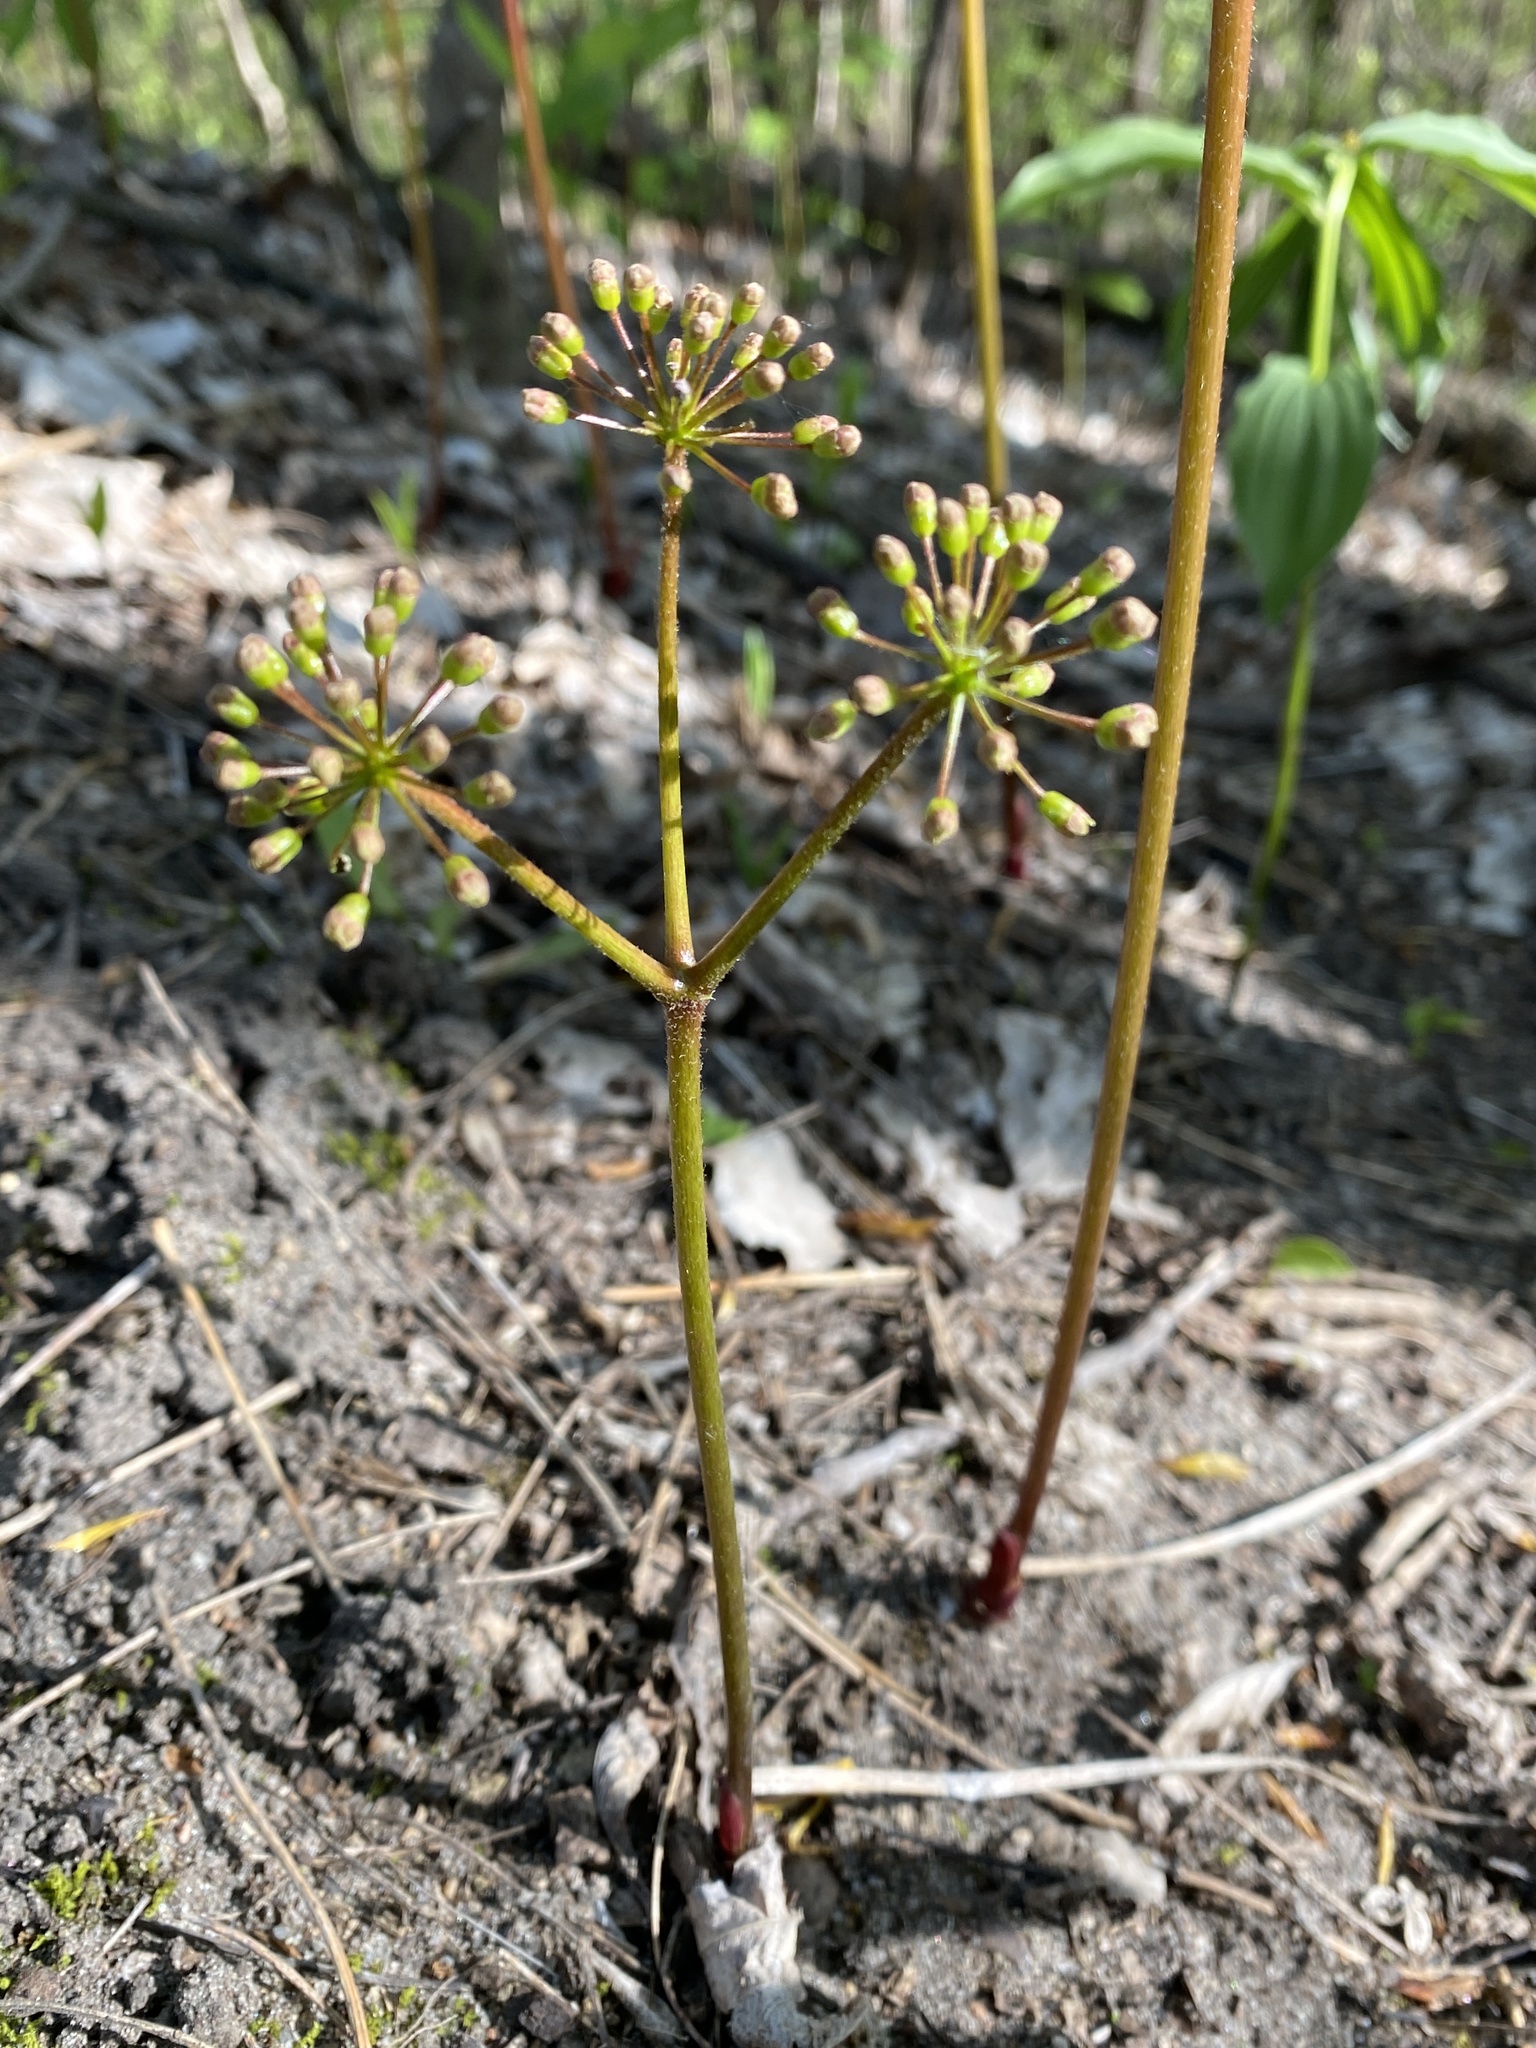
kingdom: Plantae
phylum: Tracheophyta
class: Magnoliopsida
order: Apiales
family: Araliaceae
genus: Aralia
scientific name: Aralia nudicaulis
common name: Wild sarsaparilla
